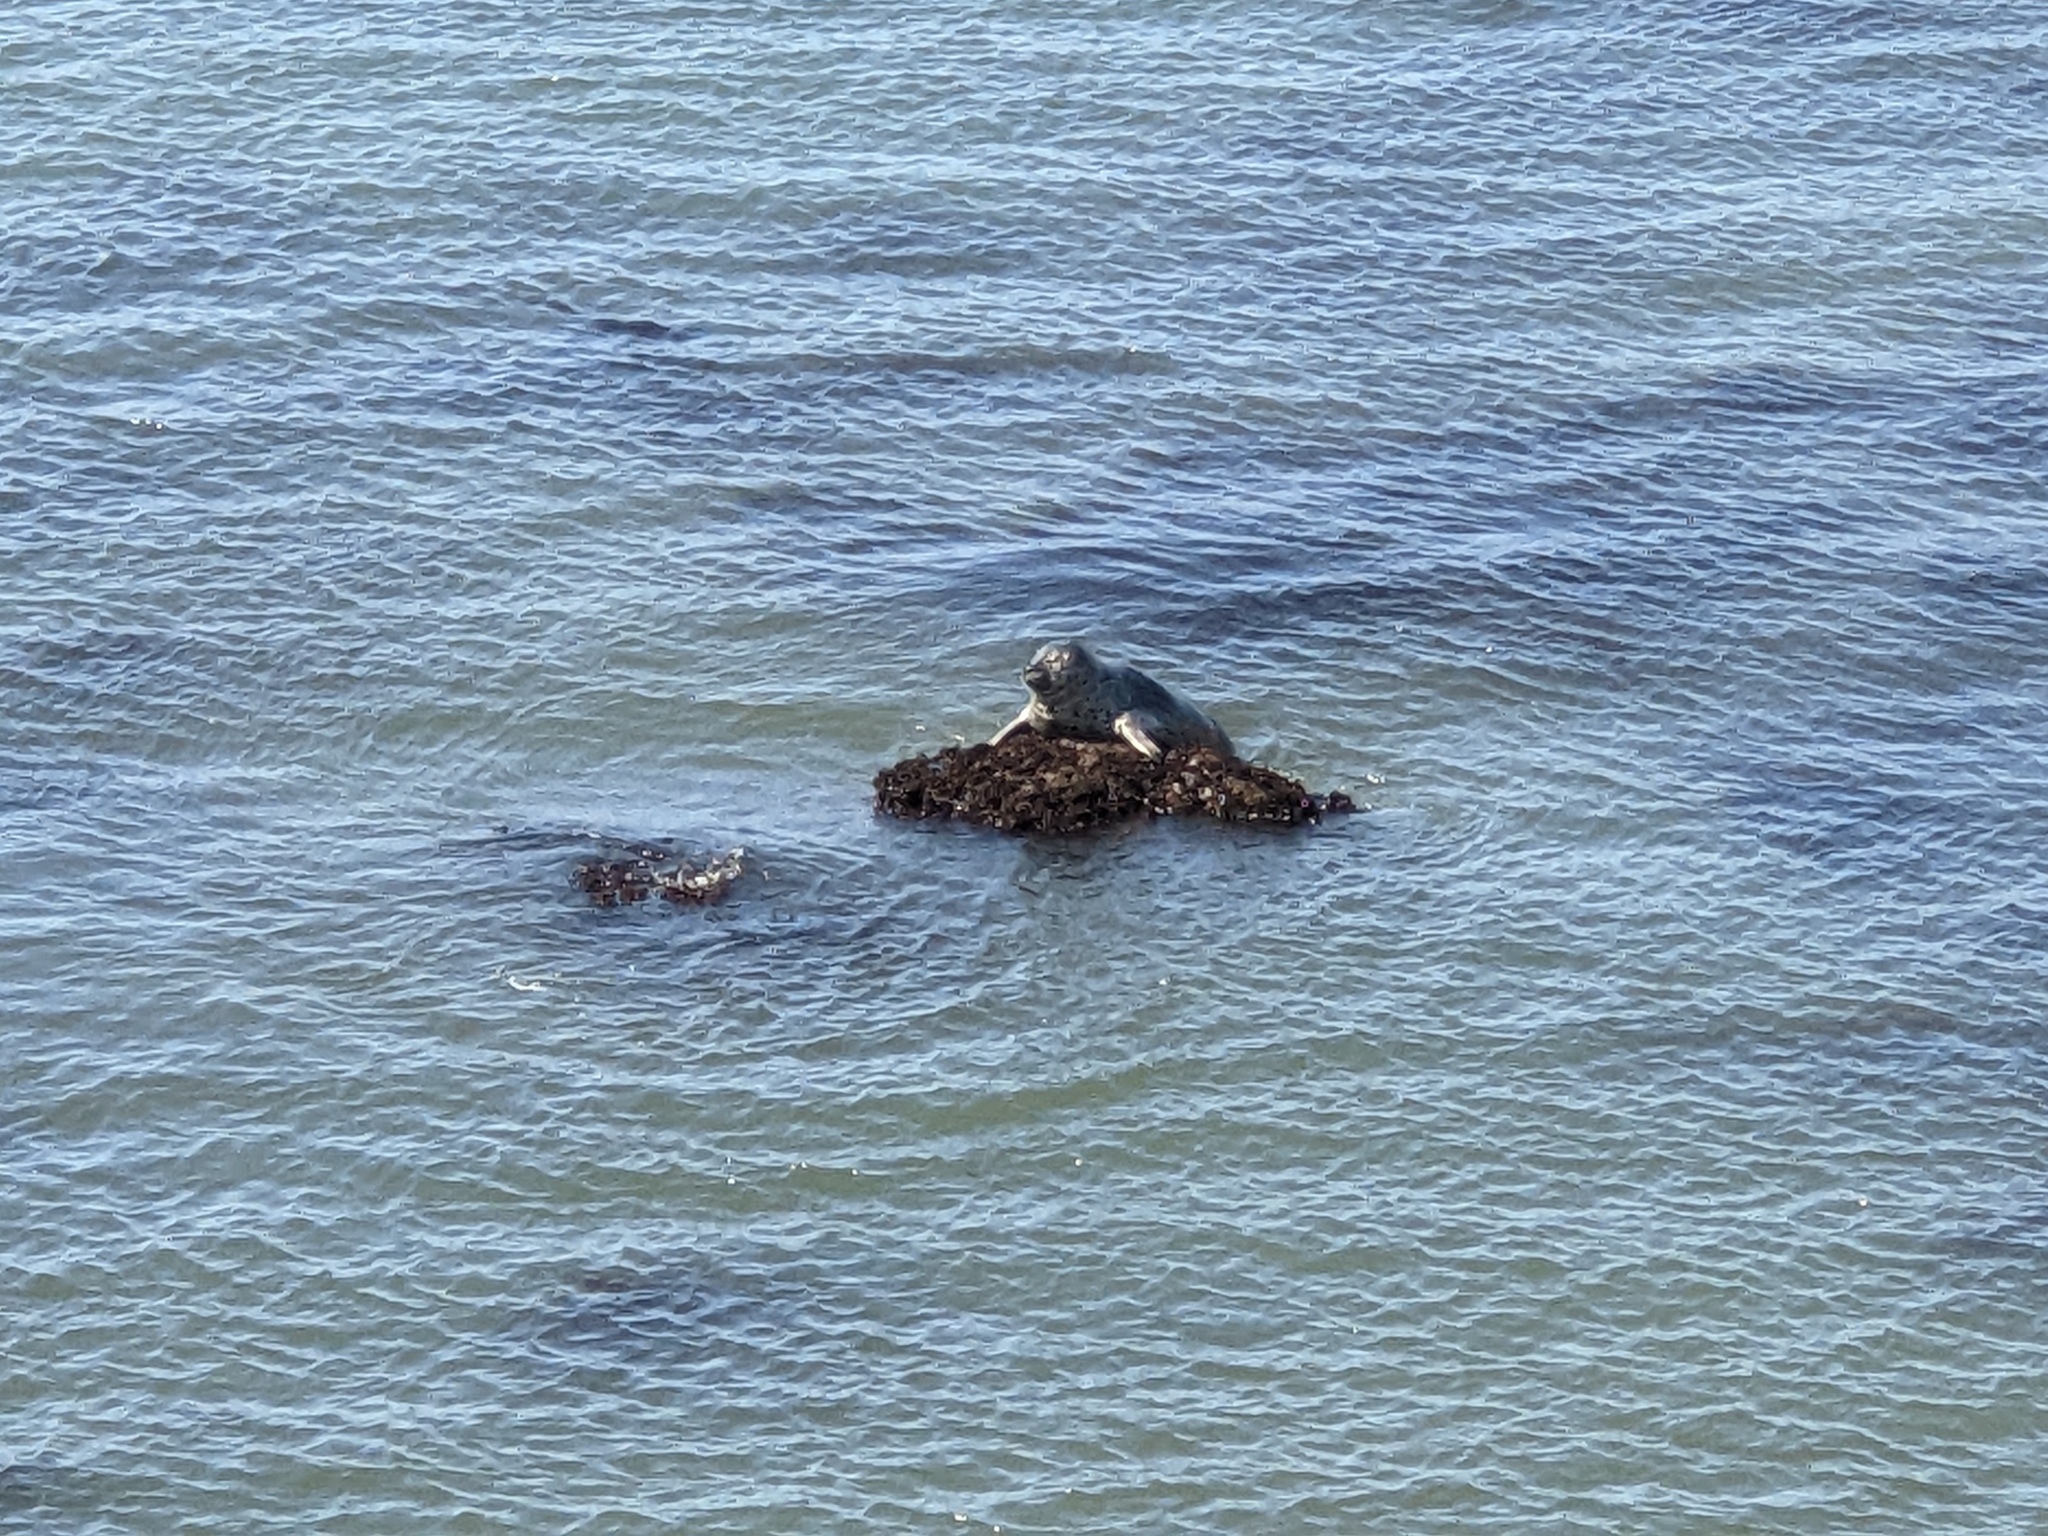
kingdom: Animalia
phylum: Chordata
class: Mammalia
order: Carnivora
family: Phocidae
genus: Phoca
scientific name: Phoca vitulina
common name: Harbor seal
